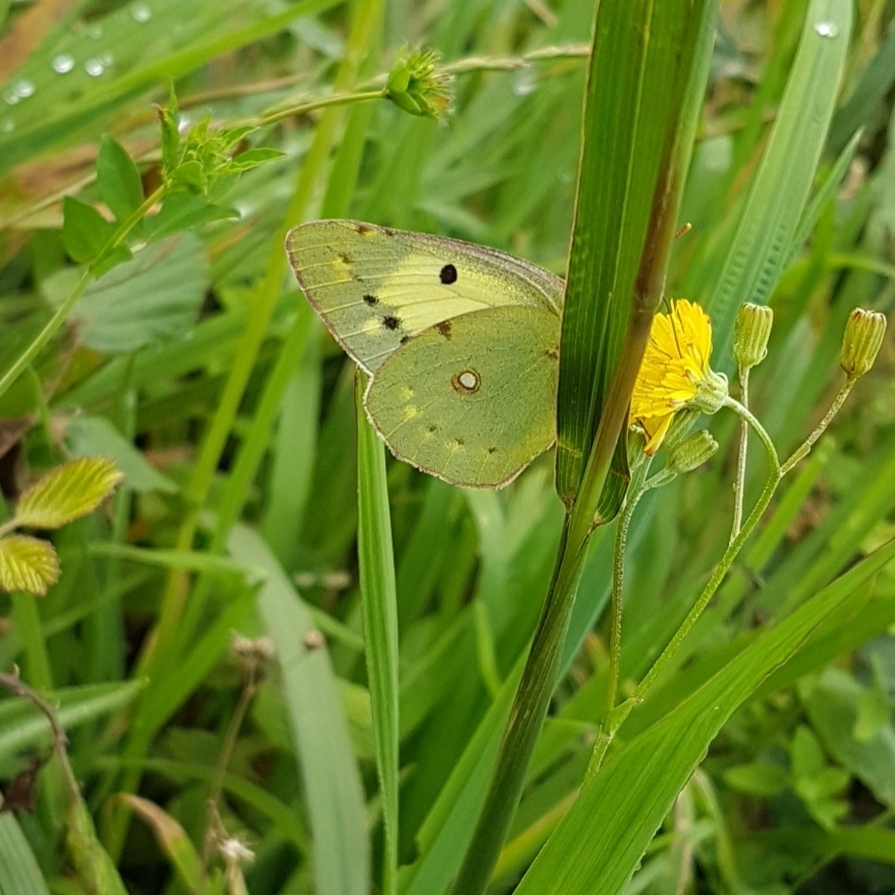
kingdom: Animalia
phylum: Arthropoda
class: Insecta
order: Lepidoptera
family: Pieridae
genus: Colias
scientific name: Colias croceus
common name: Clouded yellow
